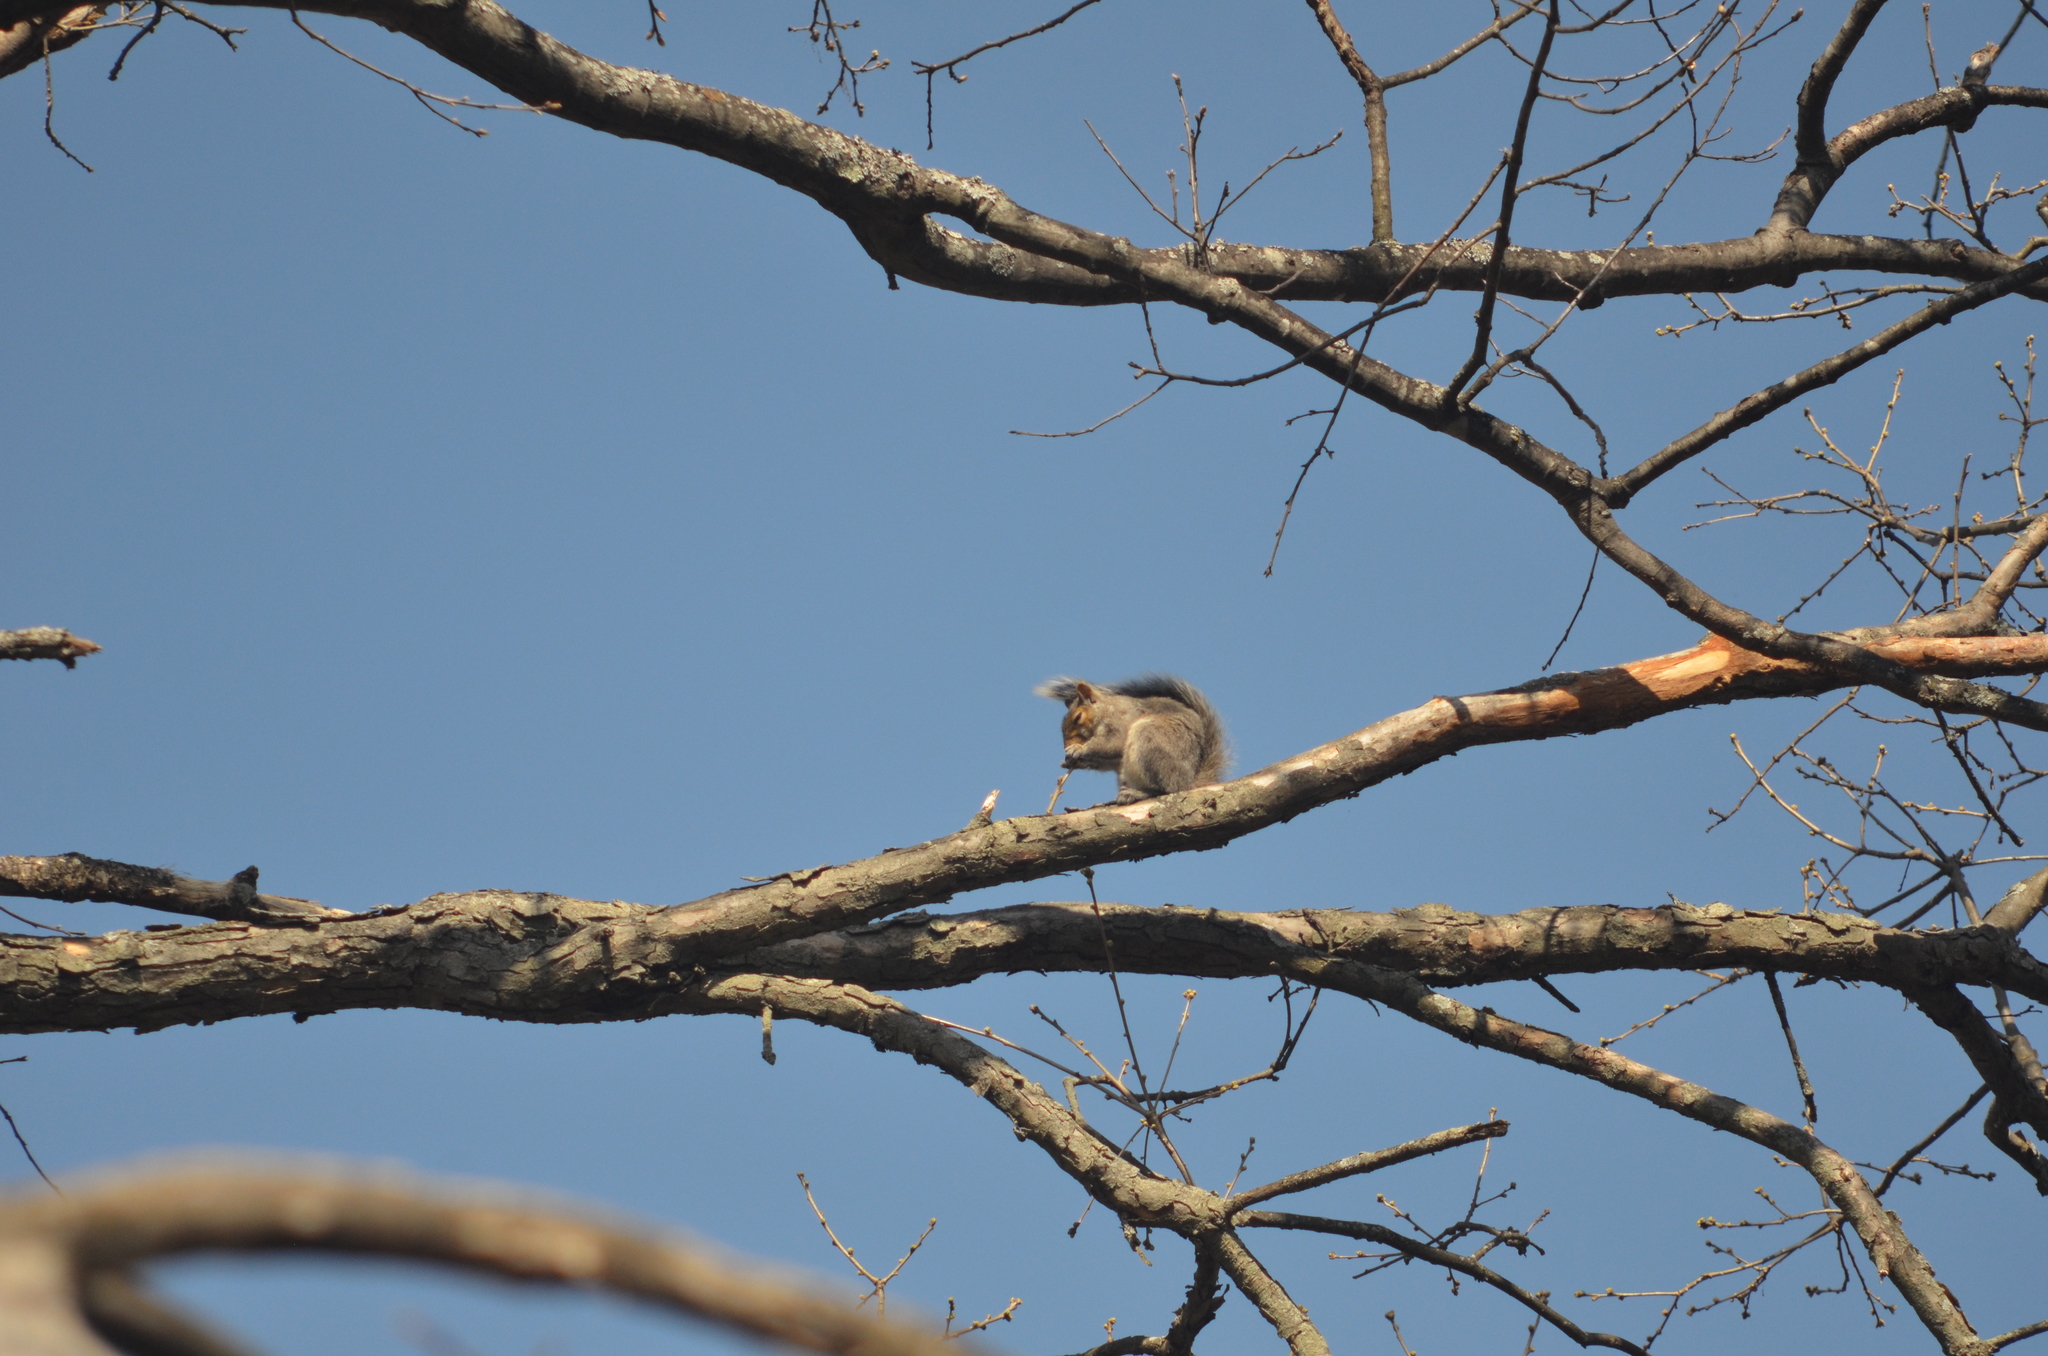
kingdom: Animalia
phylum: Chordata
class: Mammalia
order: Rodentia
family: Sciuridae
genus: Sciurus
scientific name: Sciurus carolinensis
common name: Eastern gray squirrel
